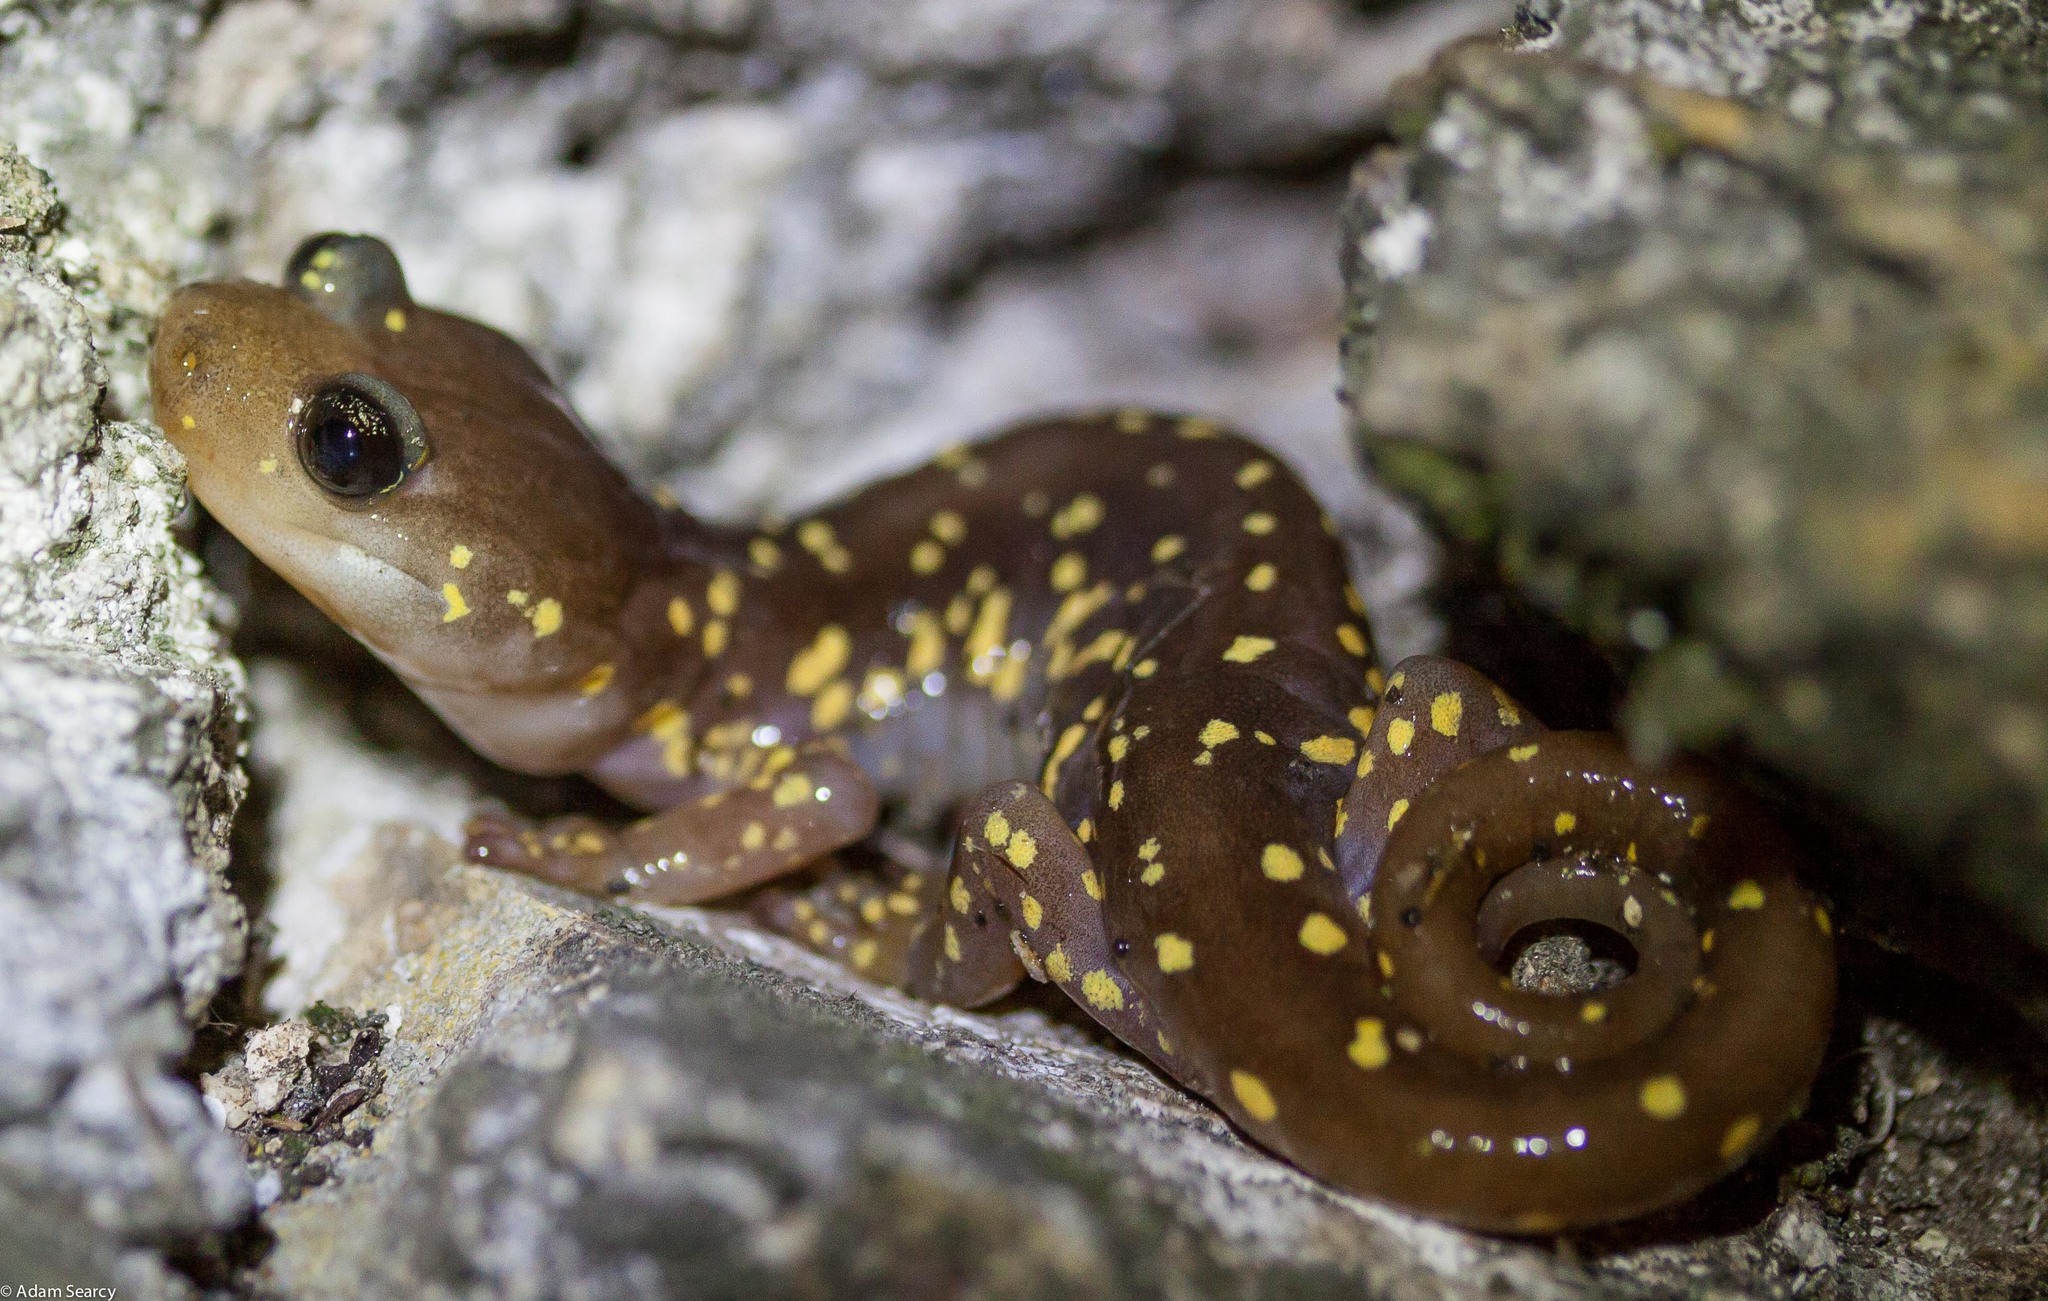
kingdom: Animalia
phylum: Chordata
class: Amphibia
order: Caudata
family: Plethodontidae
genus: Aneides
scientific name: Aneides lugubris
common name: Arboreal salamander
